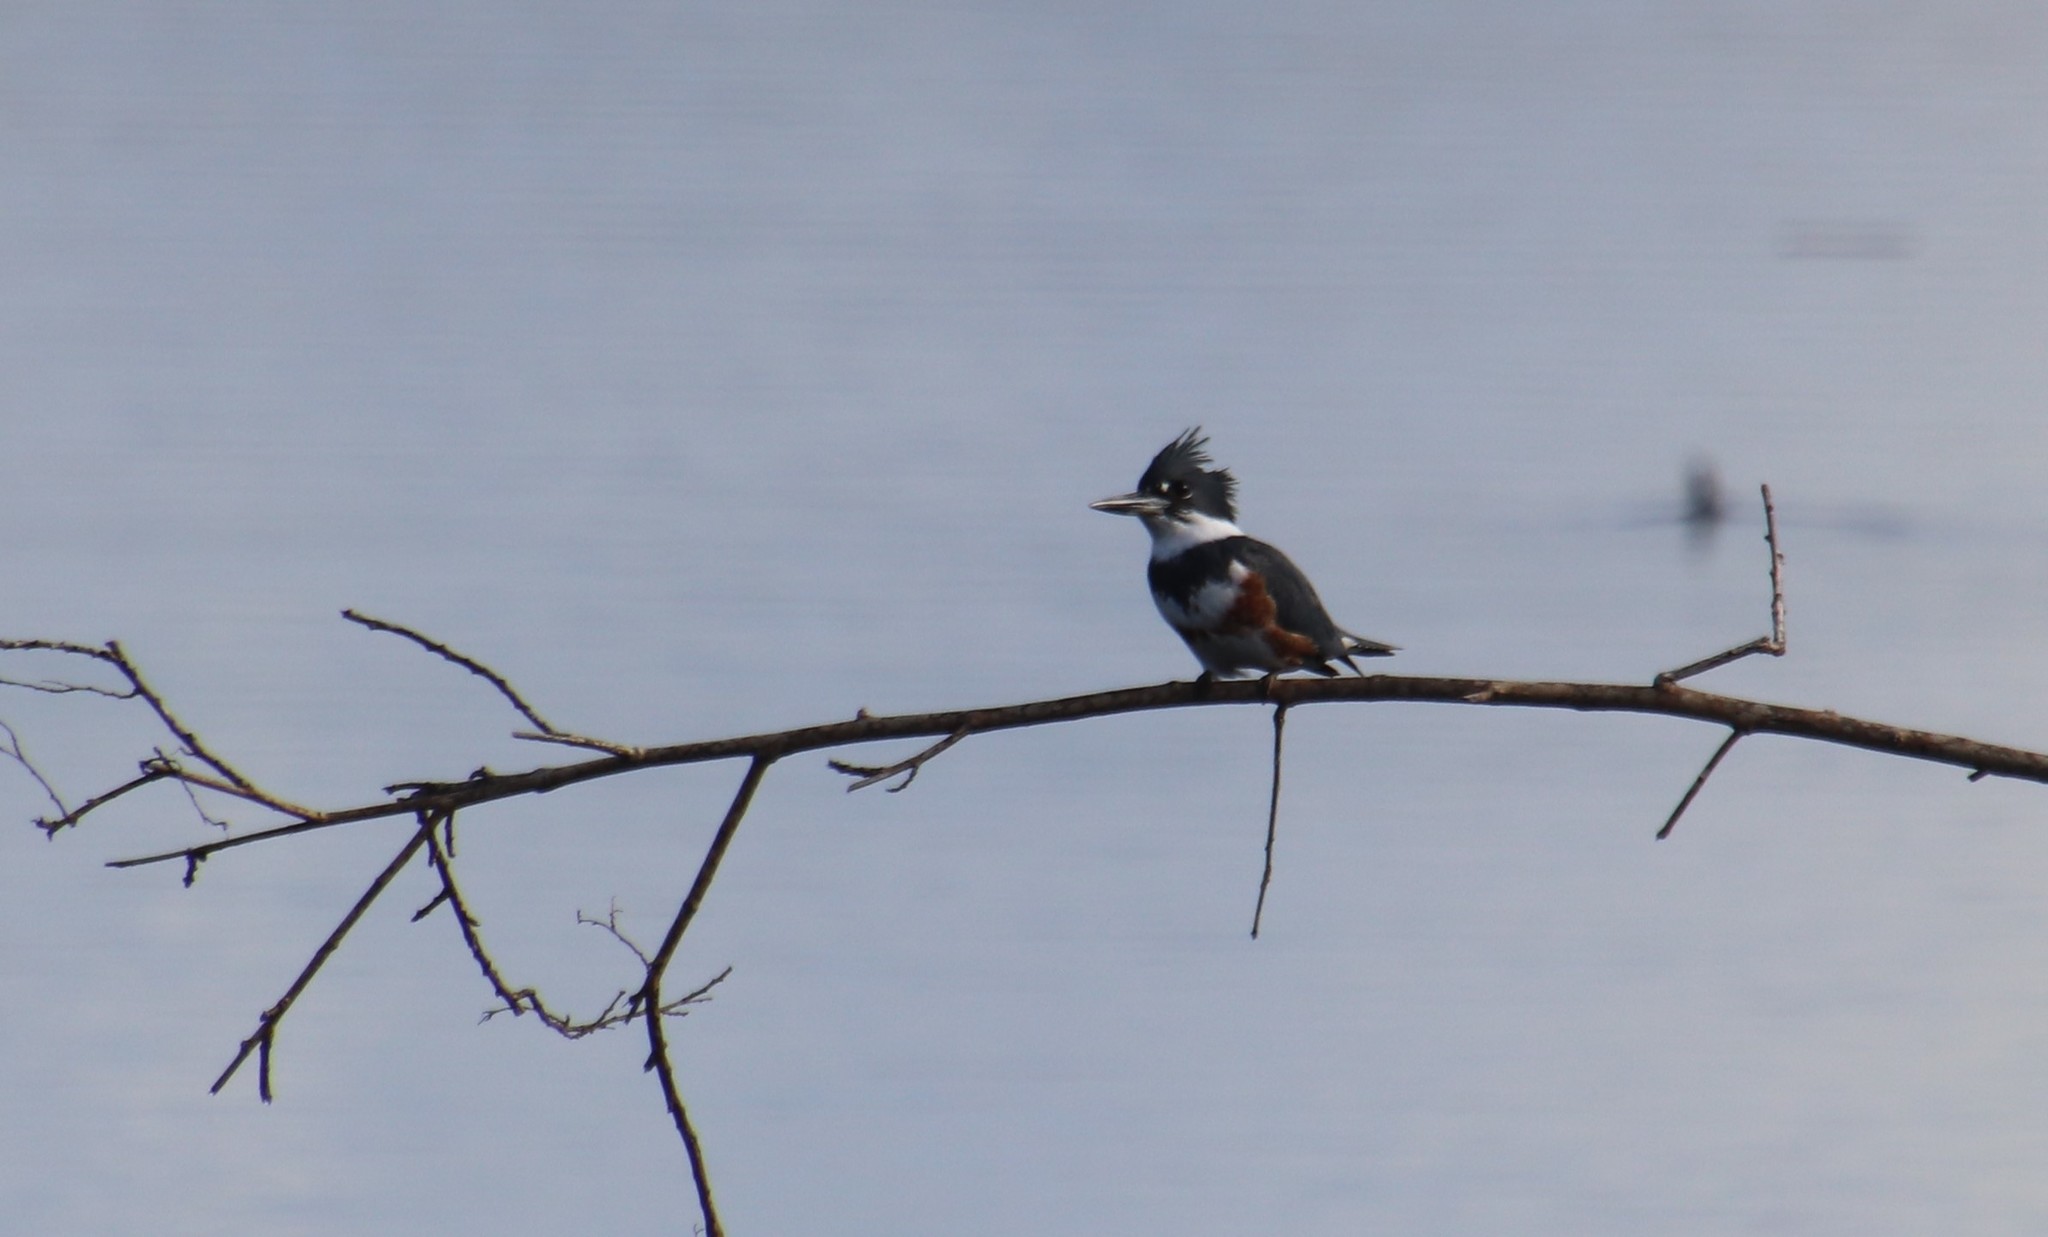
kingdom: Animalia
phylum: Chordata
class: Aves
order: Coraciiformes
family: Alcedinidae
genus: Megaceryle
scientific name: Megaceryle alcyon
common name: Belted kingfisher
